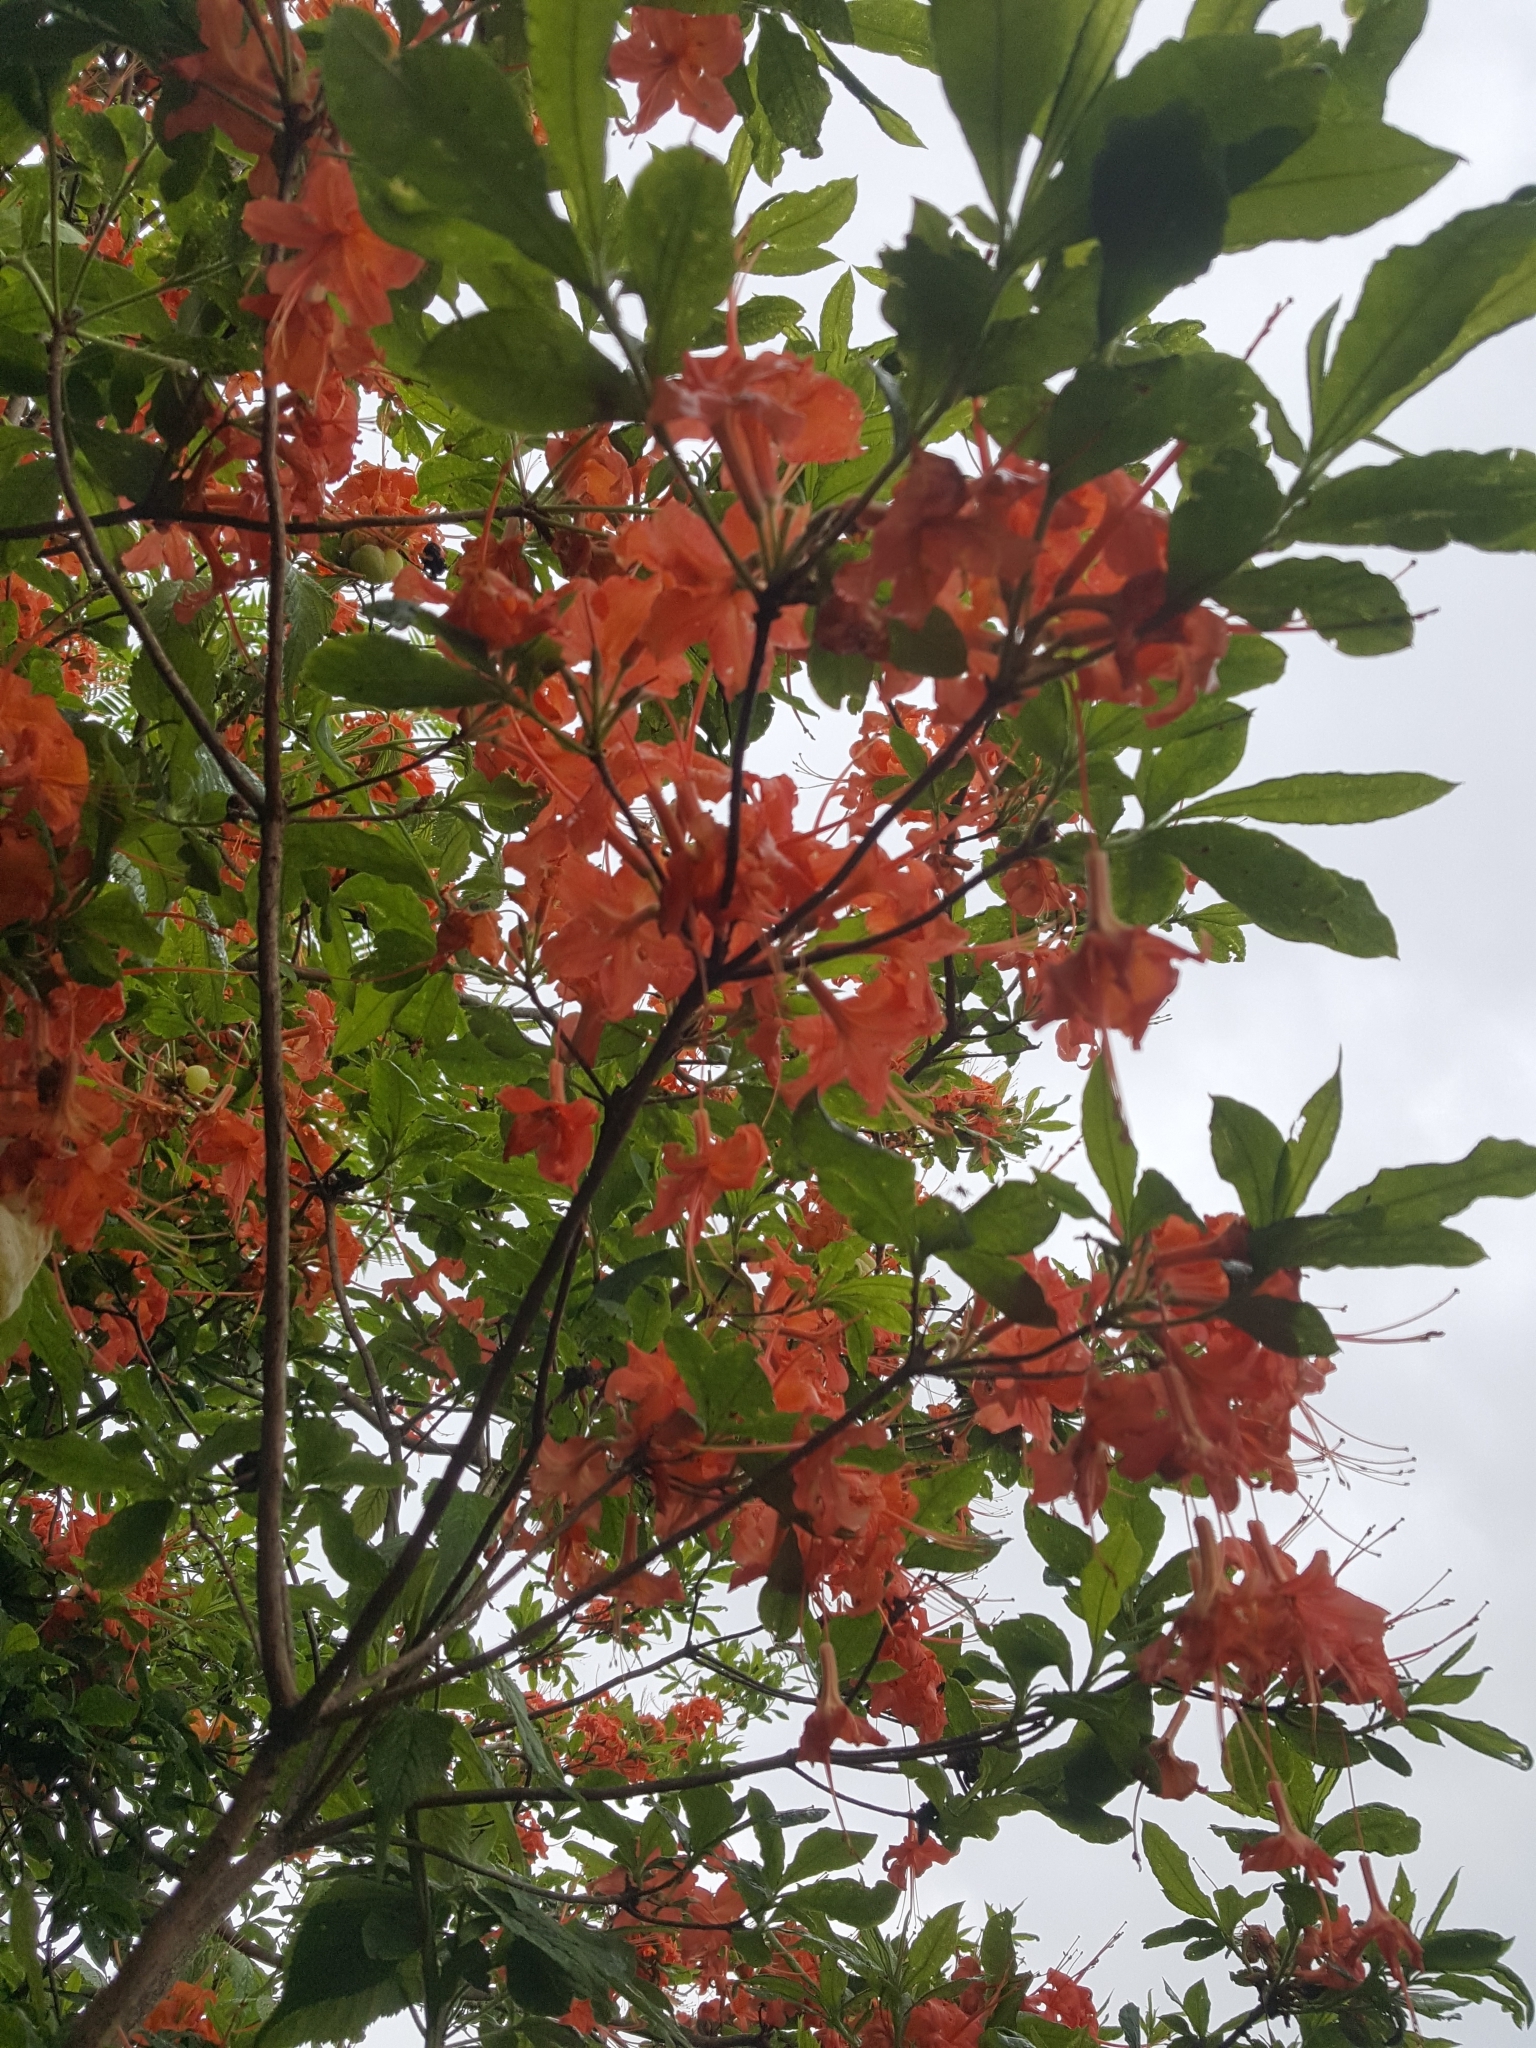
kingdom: Plantae
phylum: Tracheophyta
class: Magnoliopsida
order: Ericales
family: Ericaceae
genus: Rhododendron
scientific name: Rhododendron calendulaceum
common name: Flame azalea
